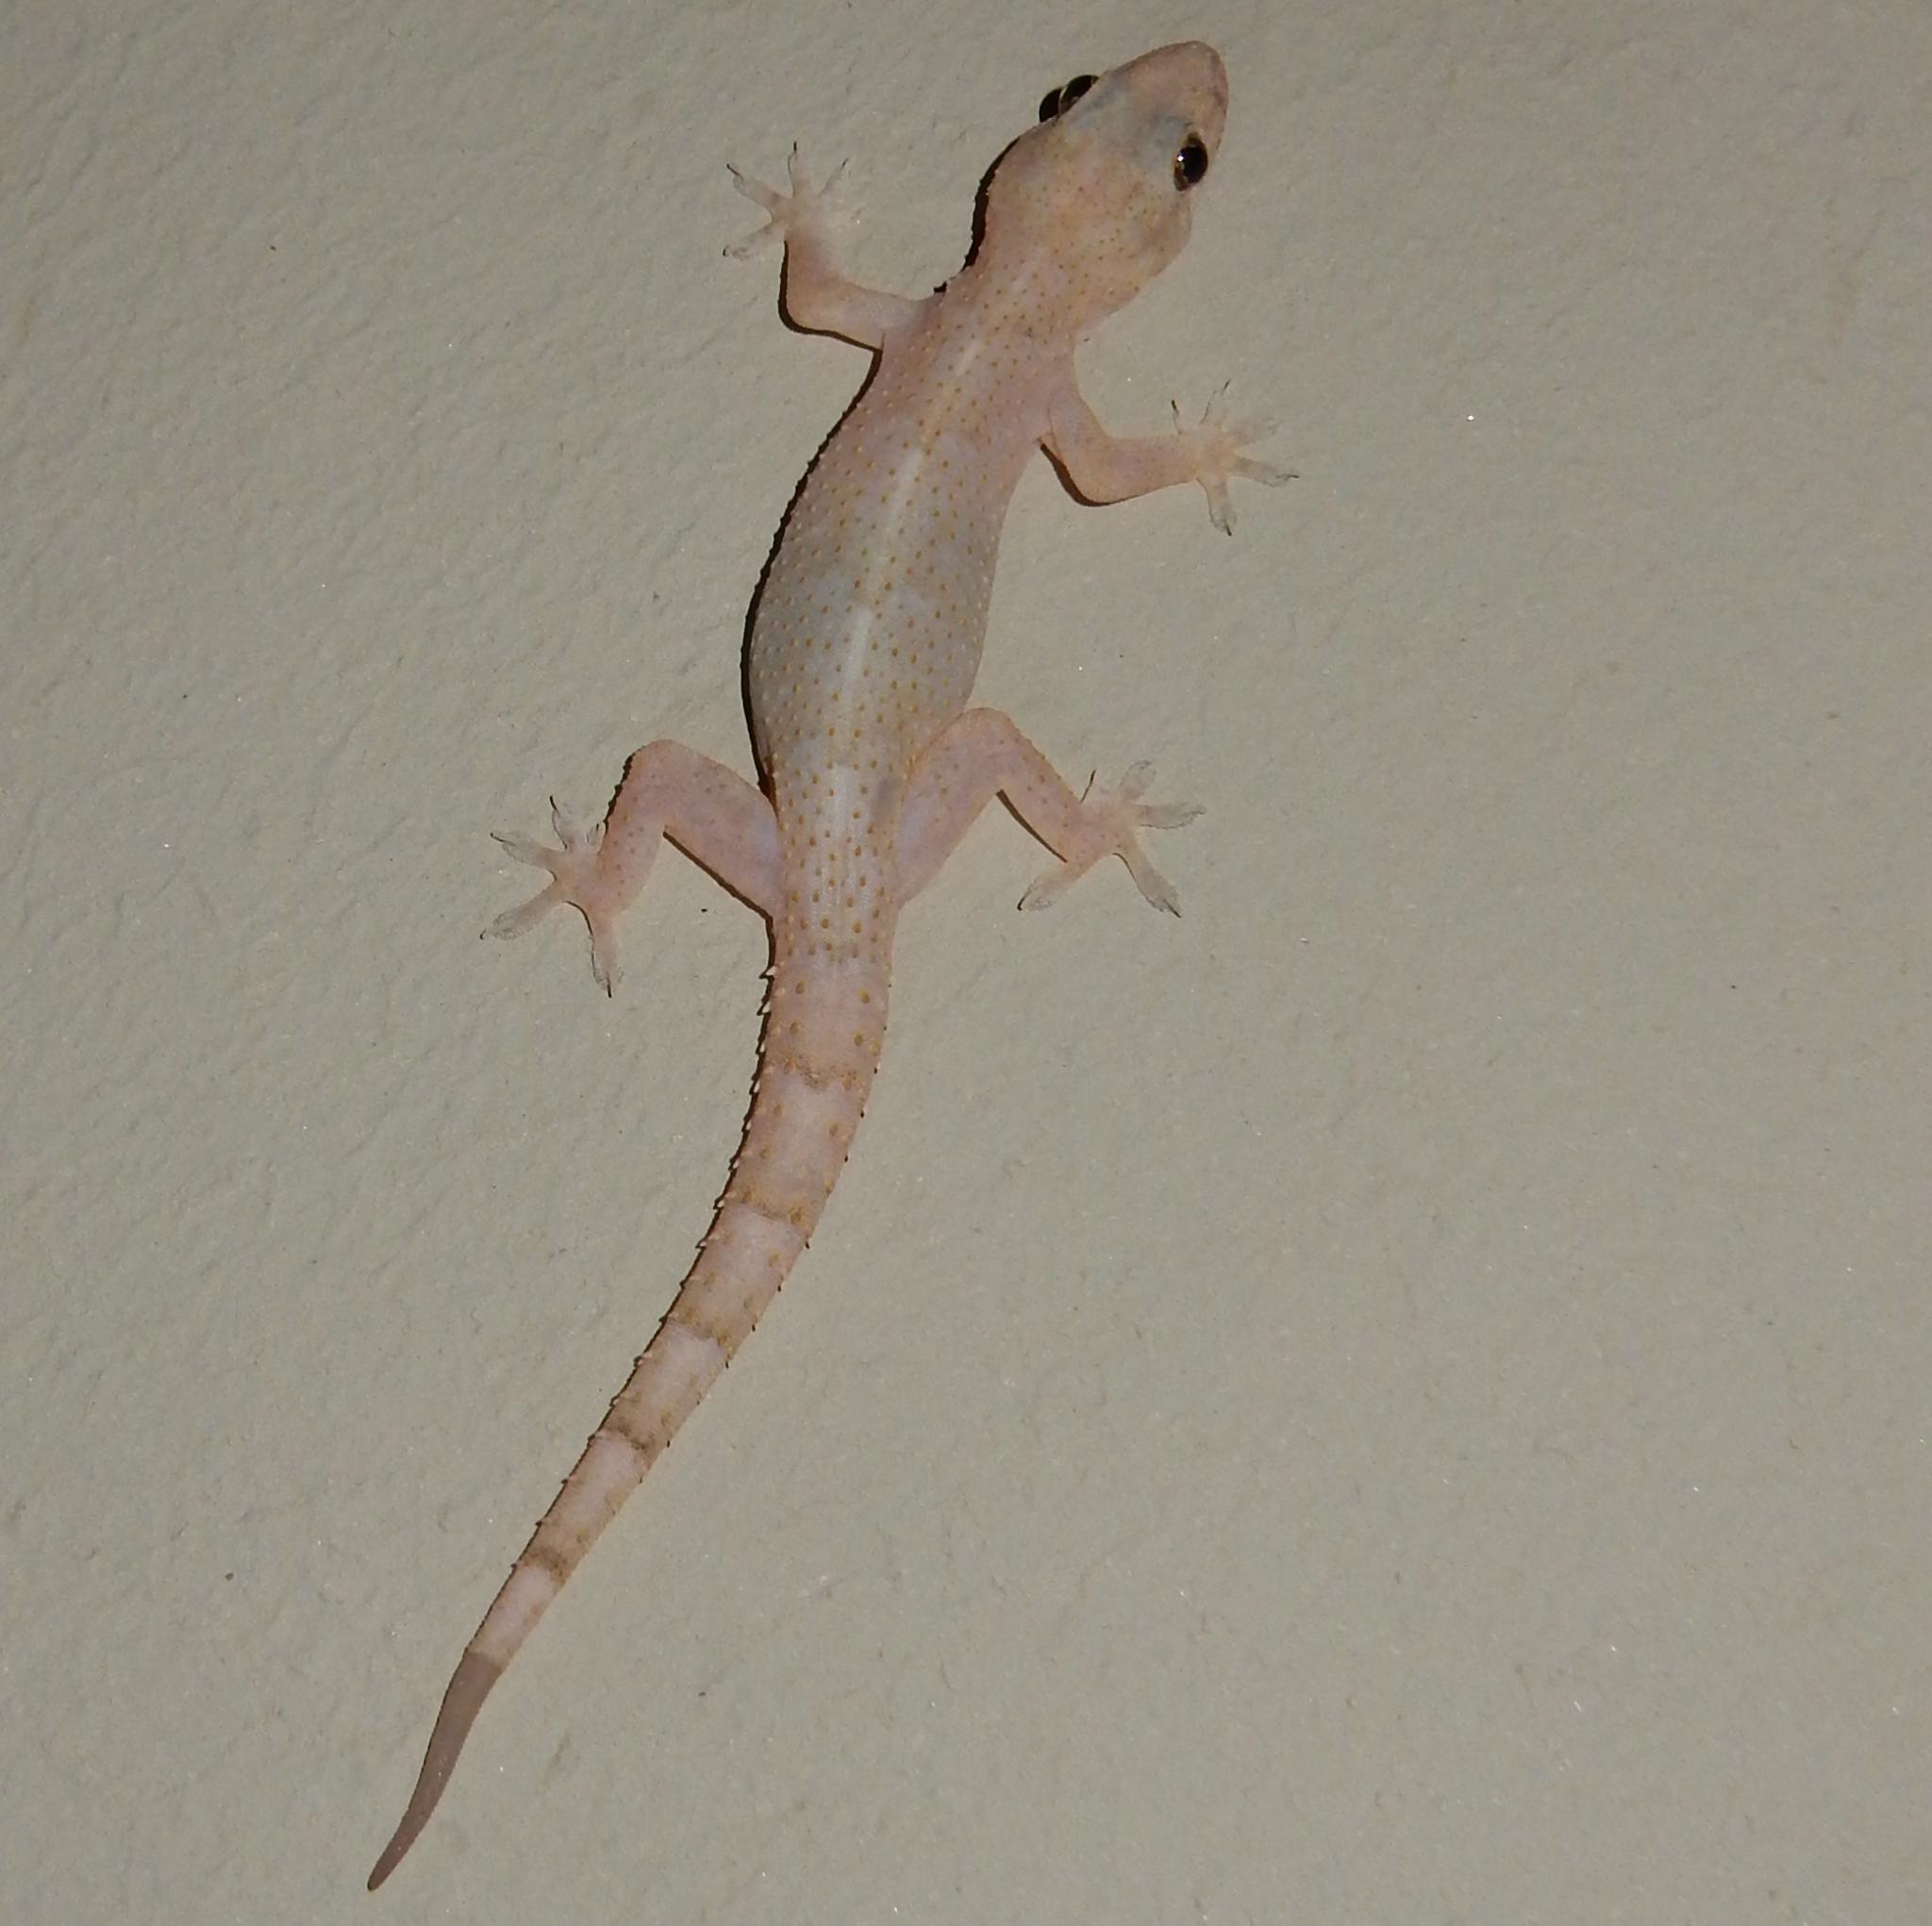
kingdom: Animalia
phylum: Chordata
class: Squamata
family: Gekkonidae
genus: Hemidactylus
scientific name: Hemidactylus mabouia
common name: House gecko
